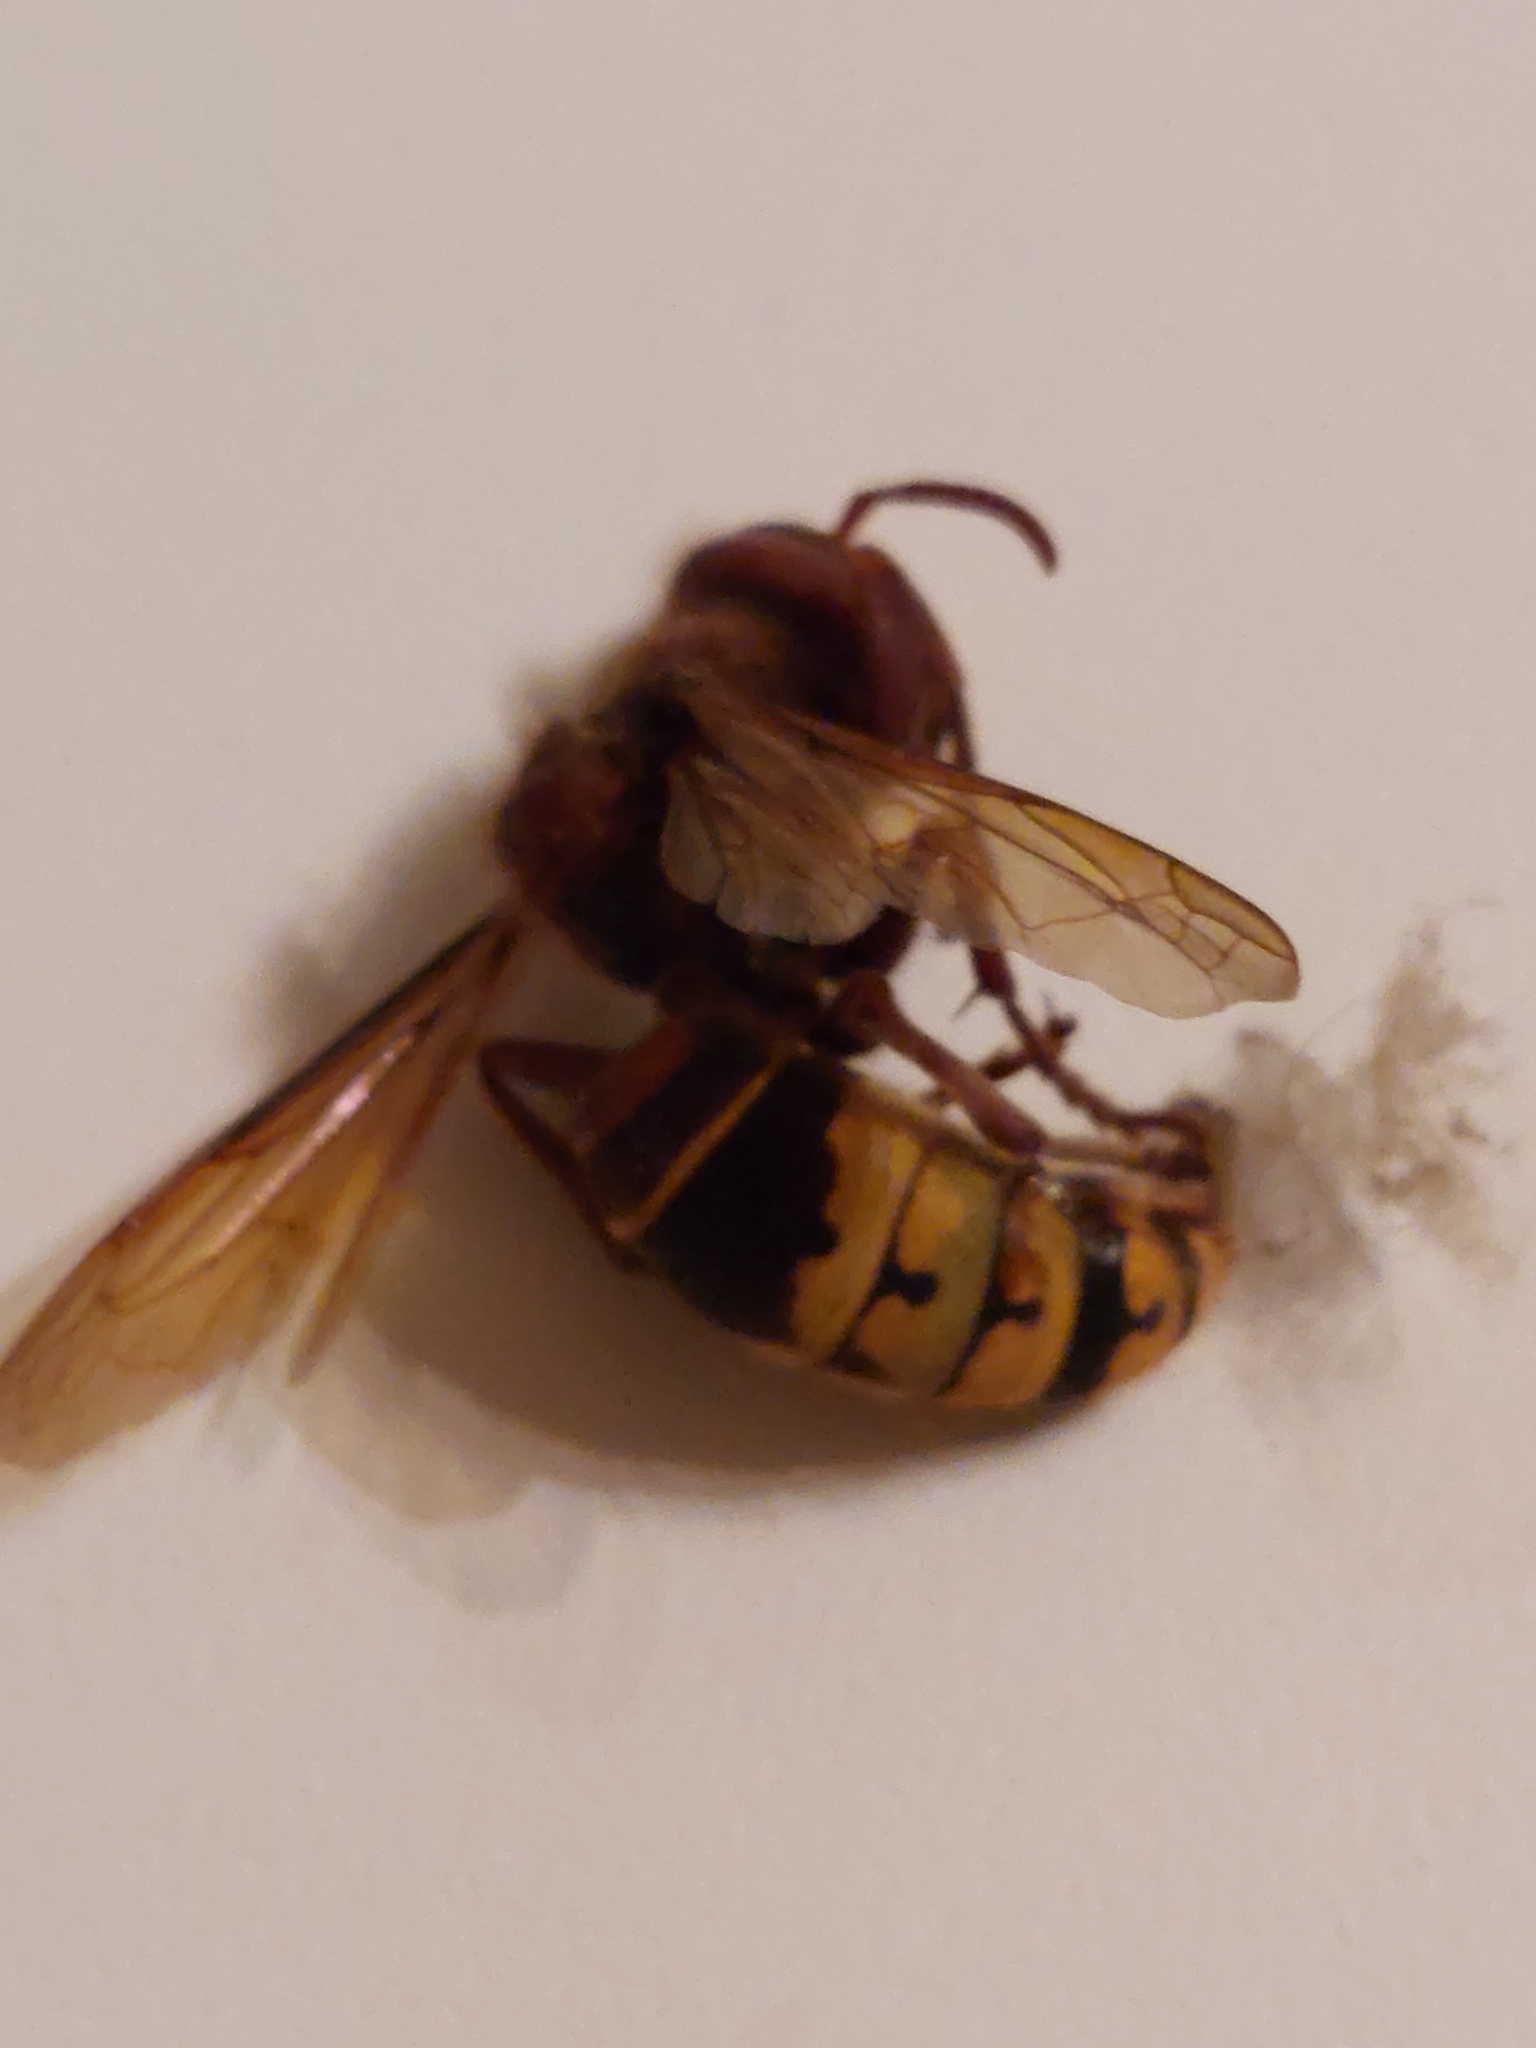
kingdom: Animalia
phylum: Arthropoda
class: Insecta
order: Hymenoptera
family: Vespidae
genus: Vespa
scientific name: Vespa crabro
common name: Hornet
